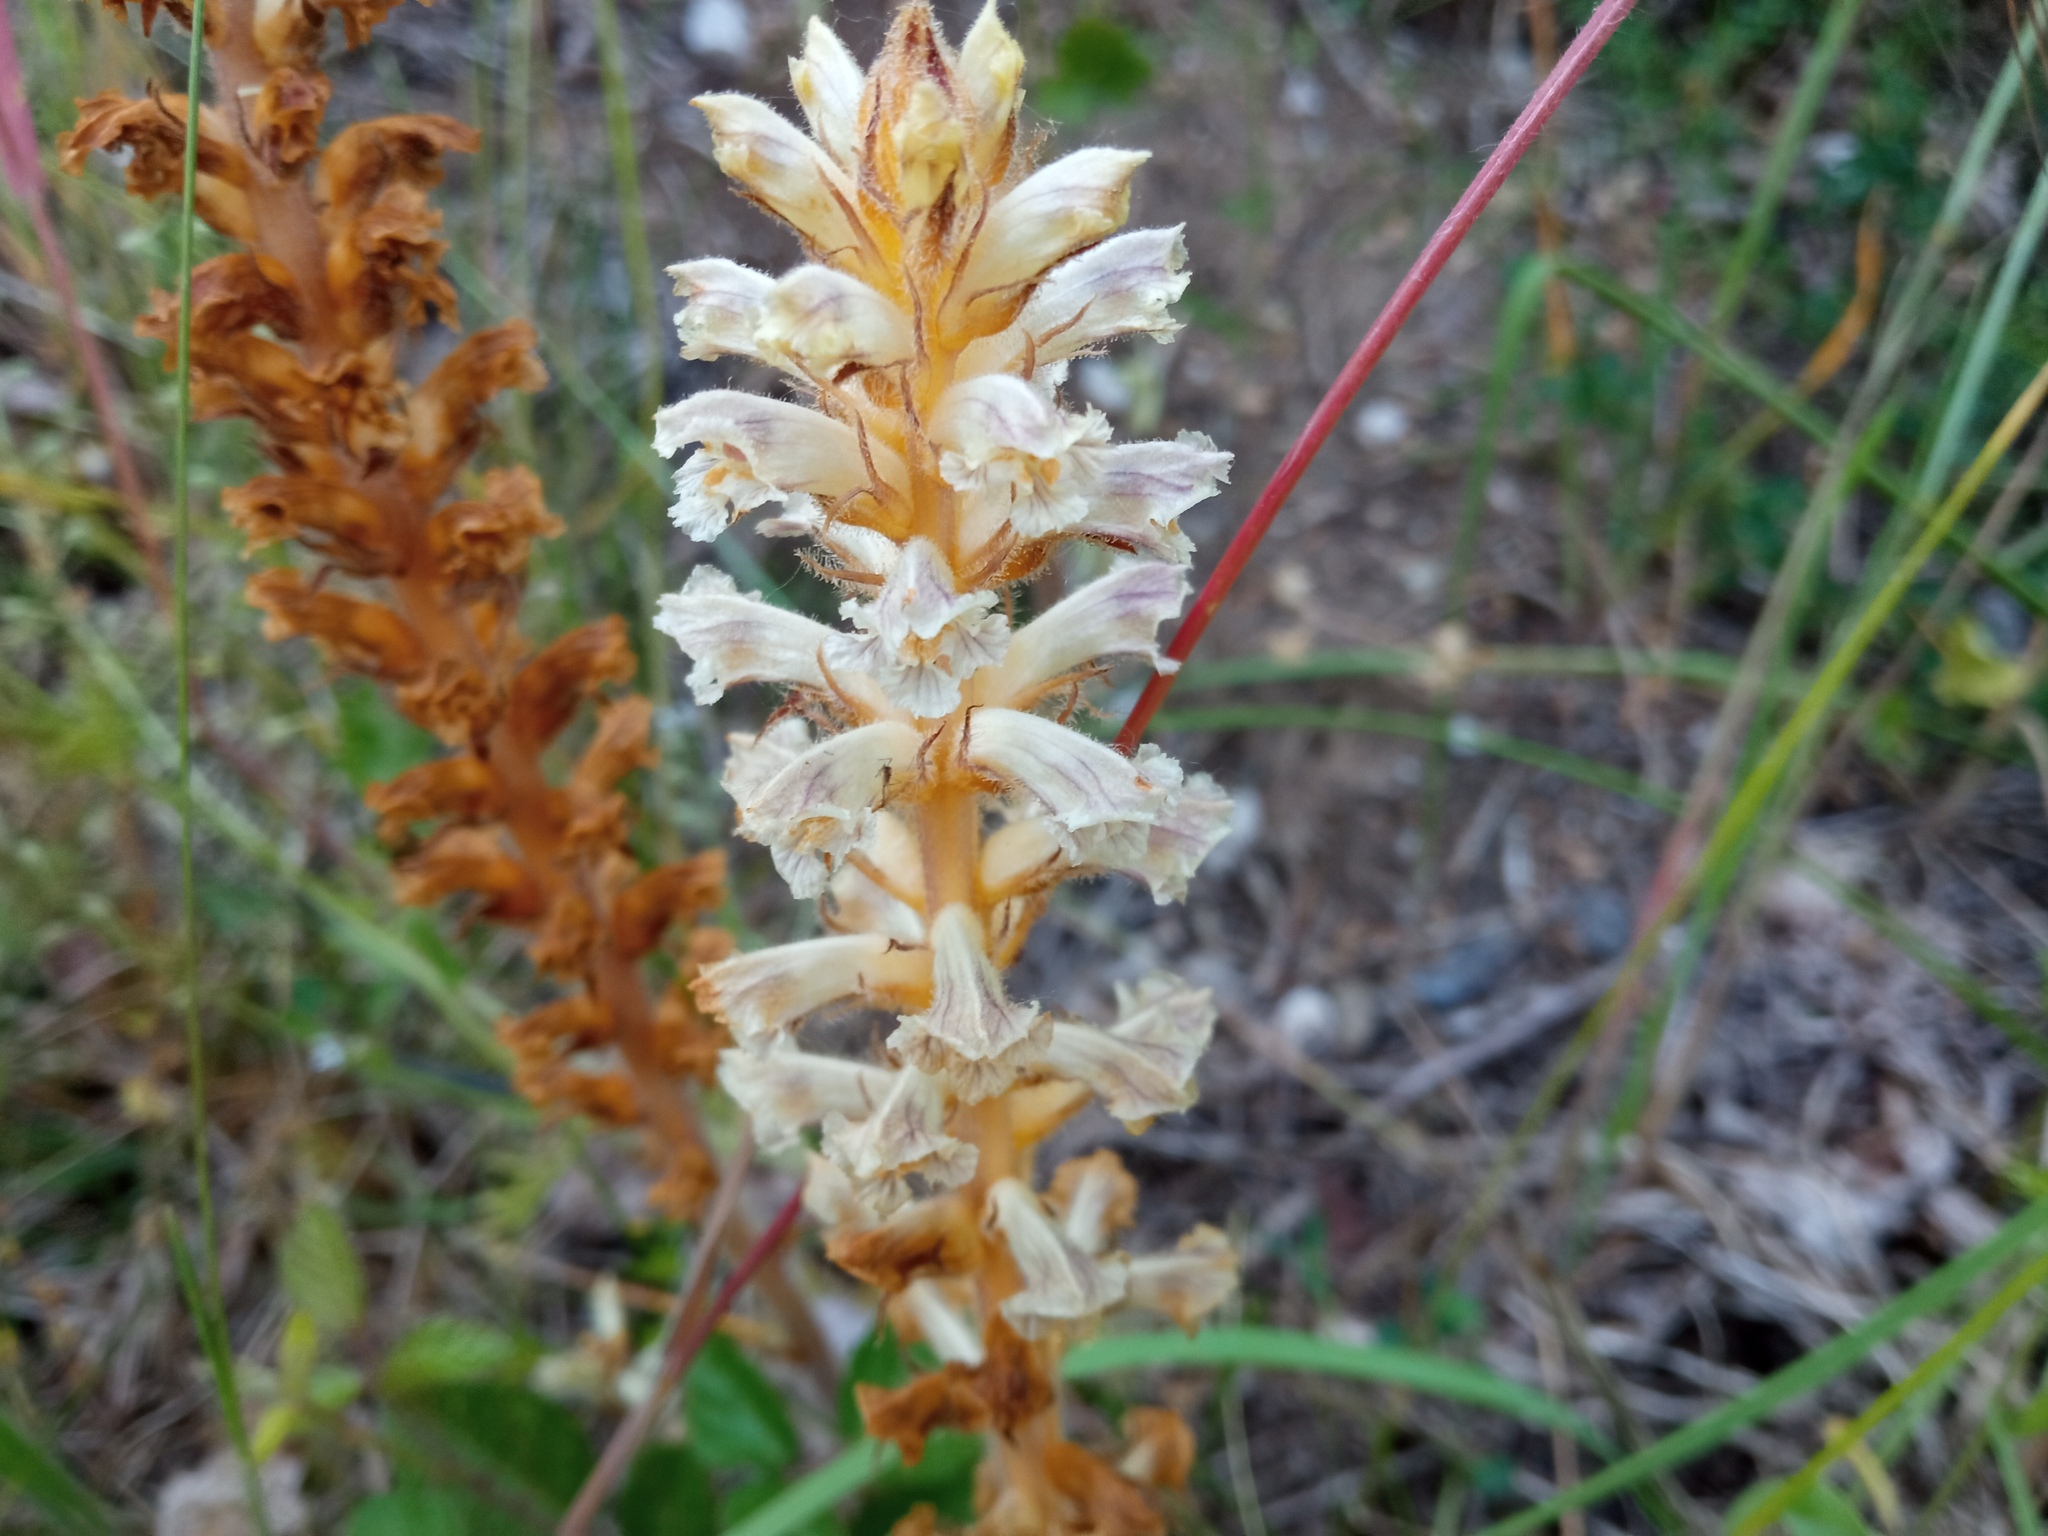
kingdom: Plantae
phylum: Tracheophyta
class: Magnoliopsida
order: Lamiales
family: Orobanchaceae
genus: Orobanche
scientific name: Orobanche minor
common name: Common broomrape
